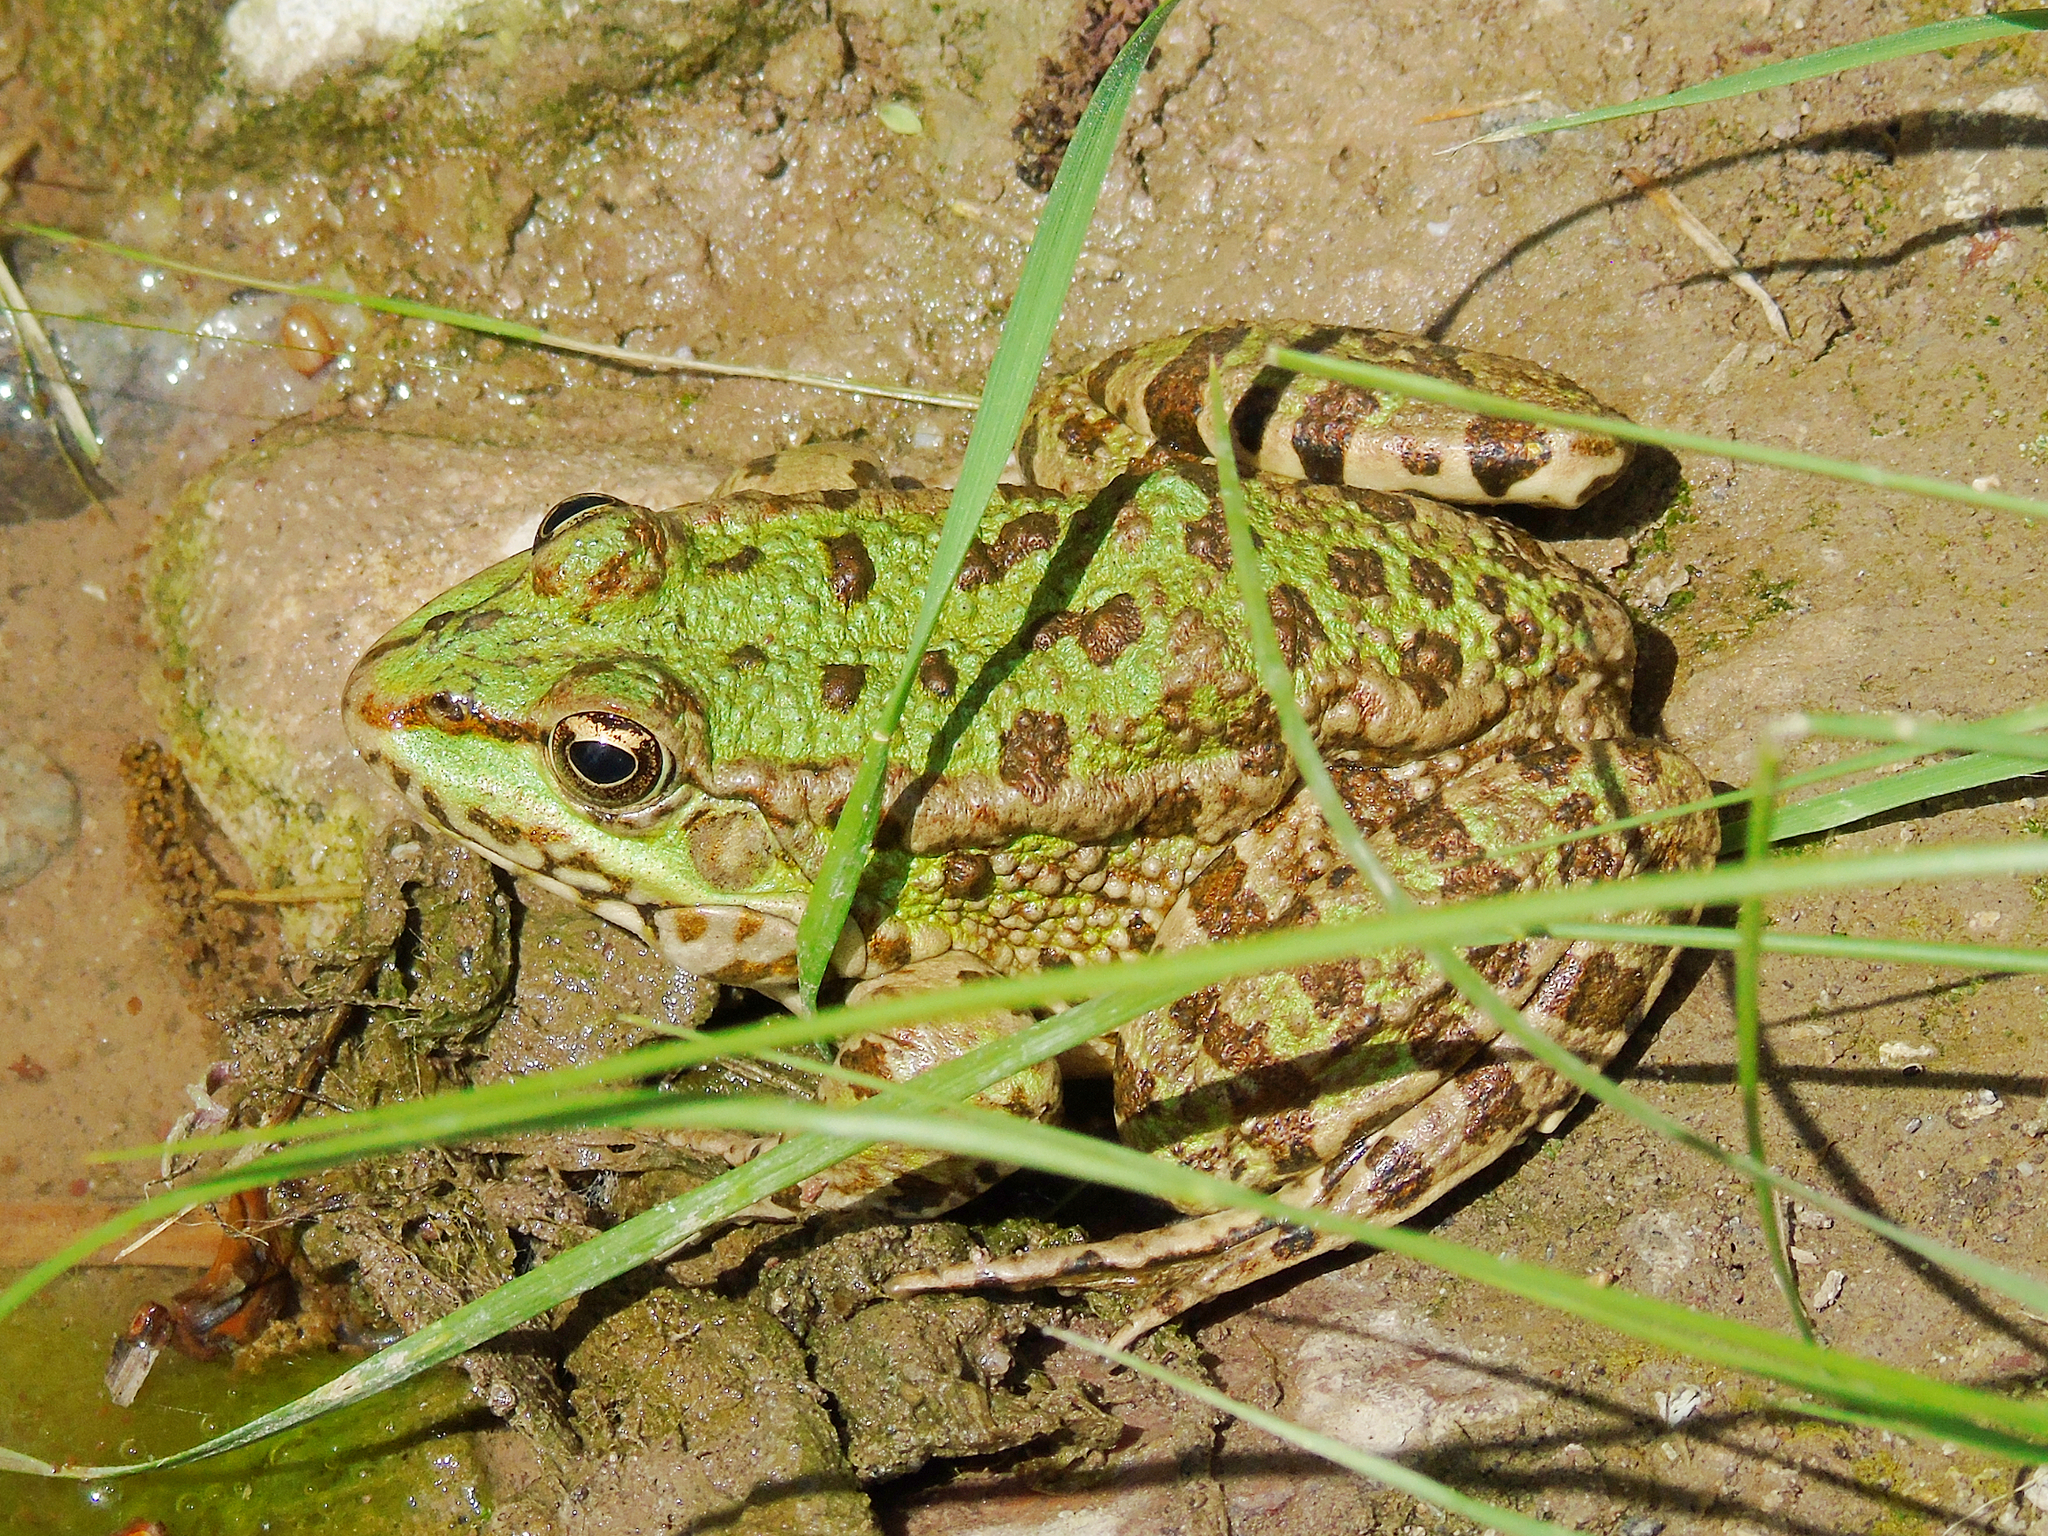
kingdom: Animalia
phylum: Chordata
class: Amphibia
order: Anura
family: Ranidae
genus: Pelophylax
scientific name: Pelophylax ridibundus
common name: Marsh frog
